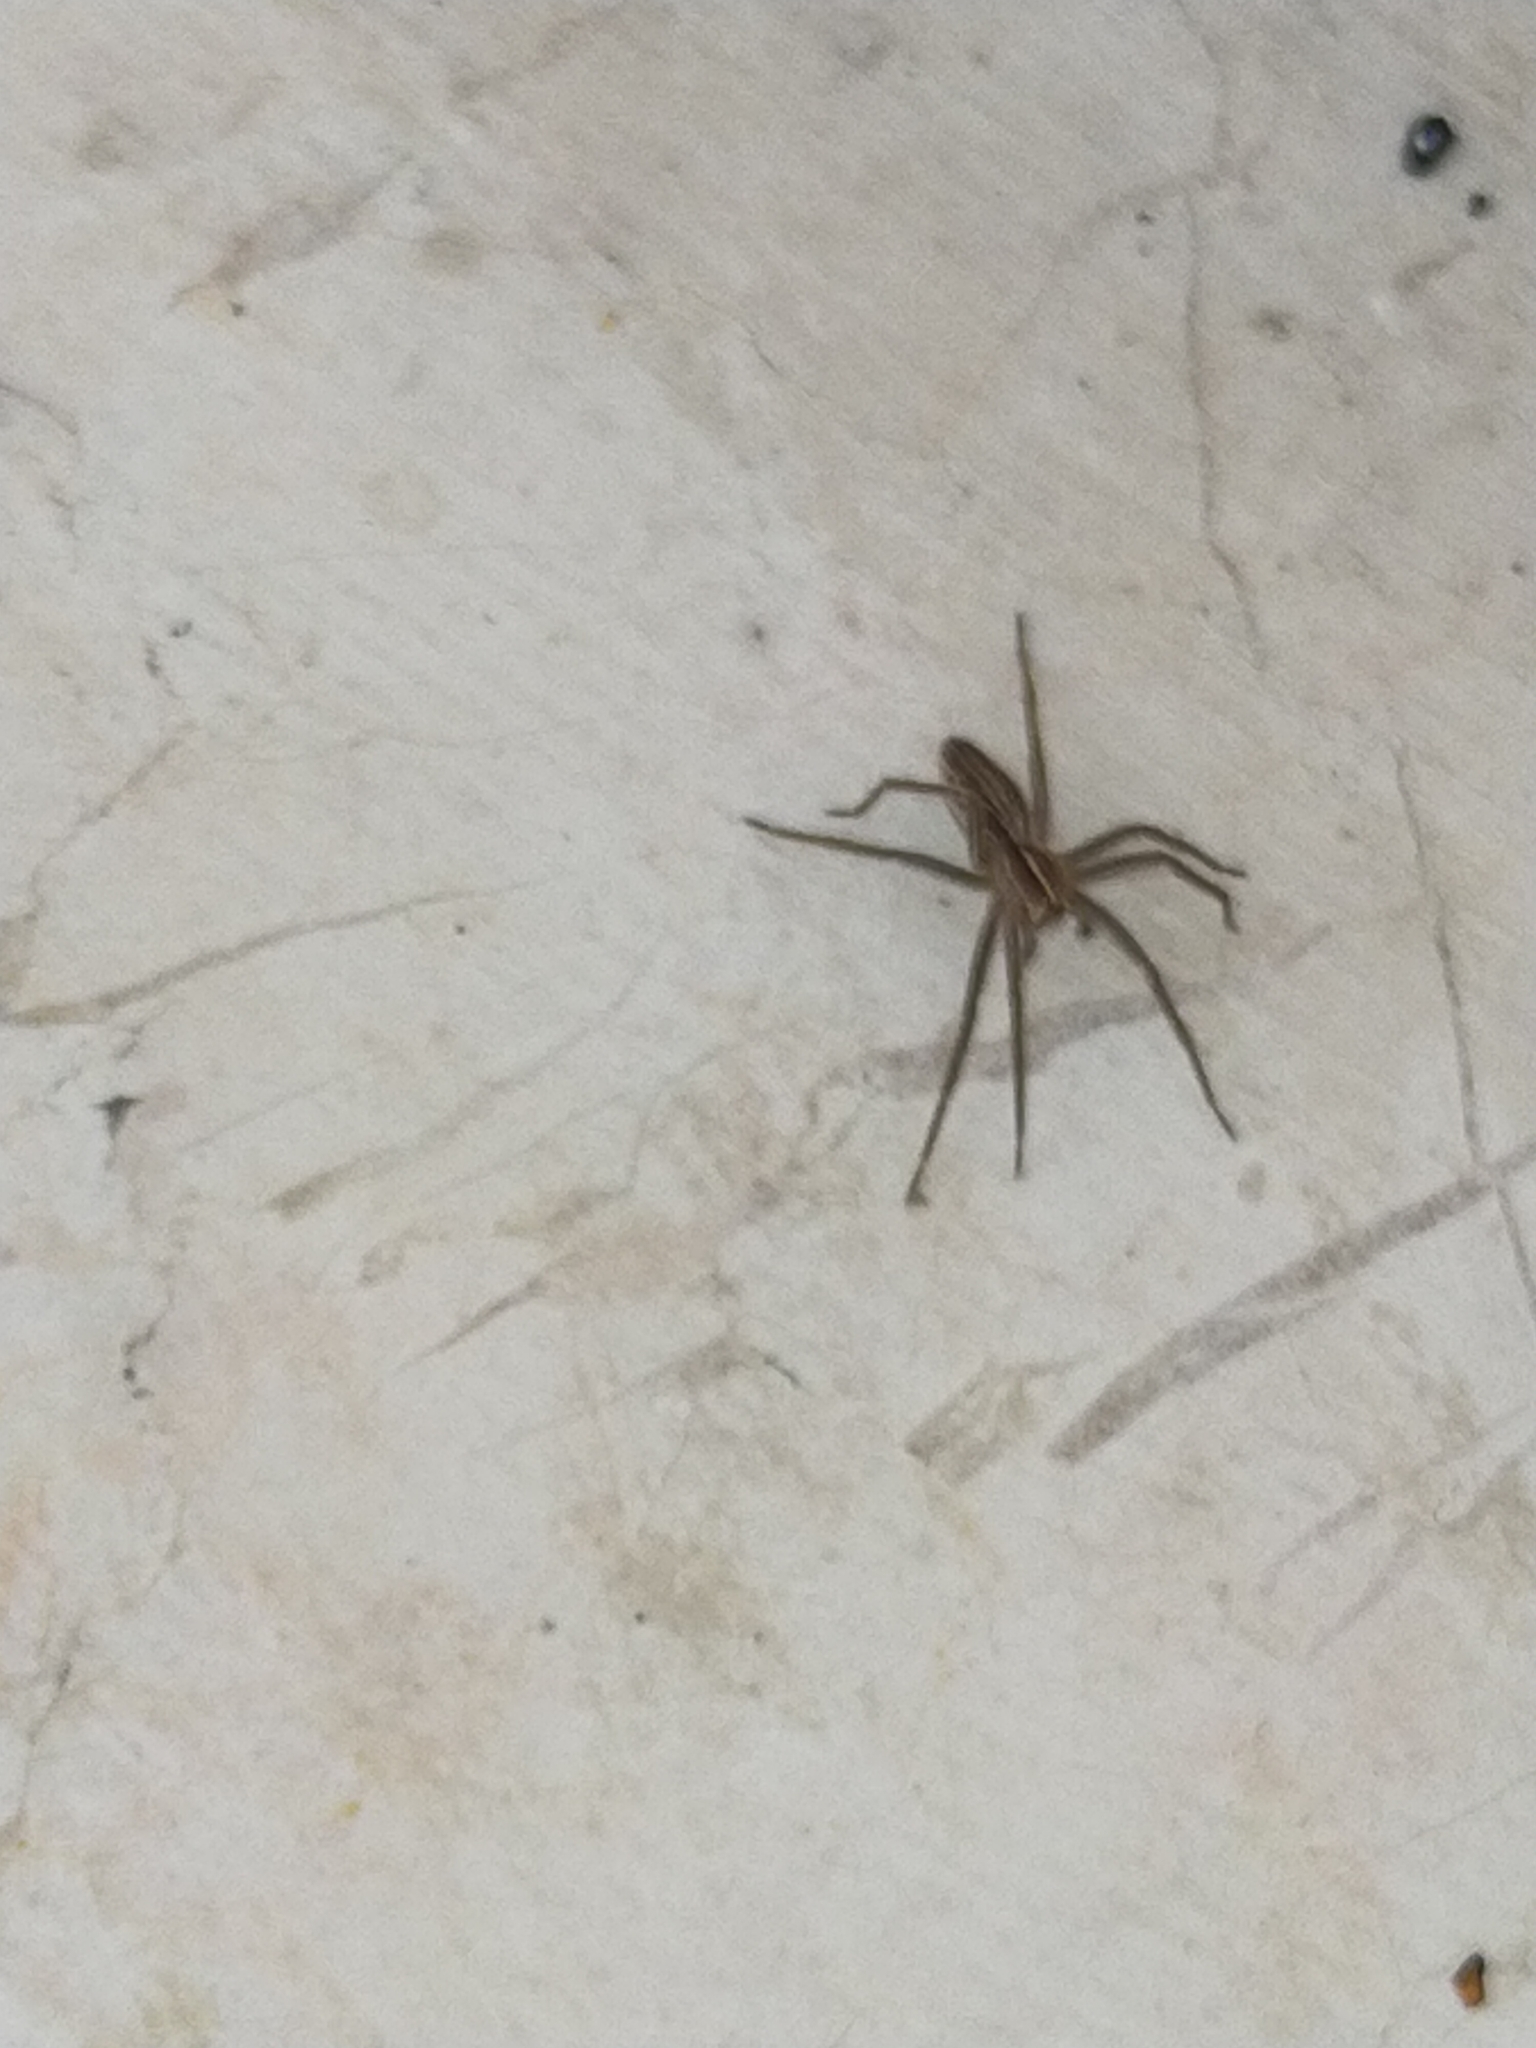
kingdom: Animalia
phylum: Arthropoda
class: Arachnida
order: Araneae
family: Pisauridae
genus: Pisaura
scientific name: Pisaura mirabilis
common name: Tent spider
